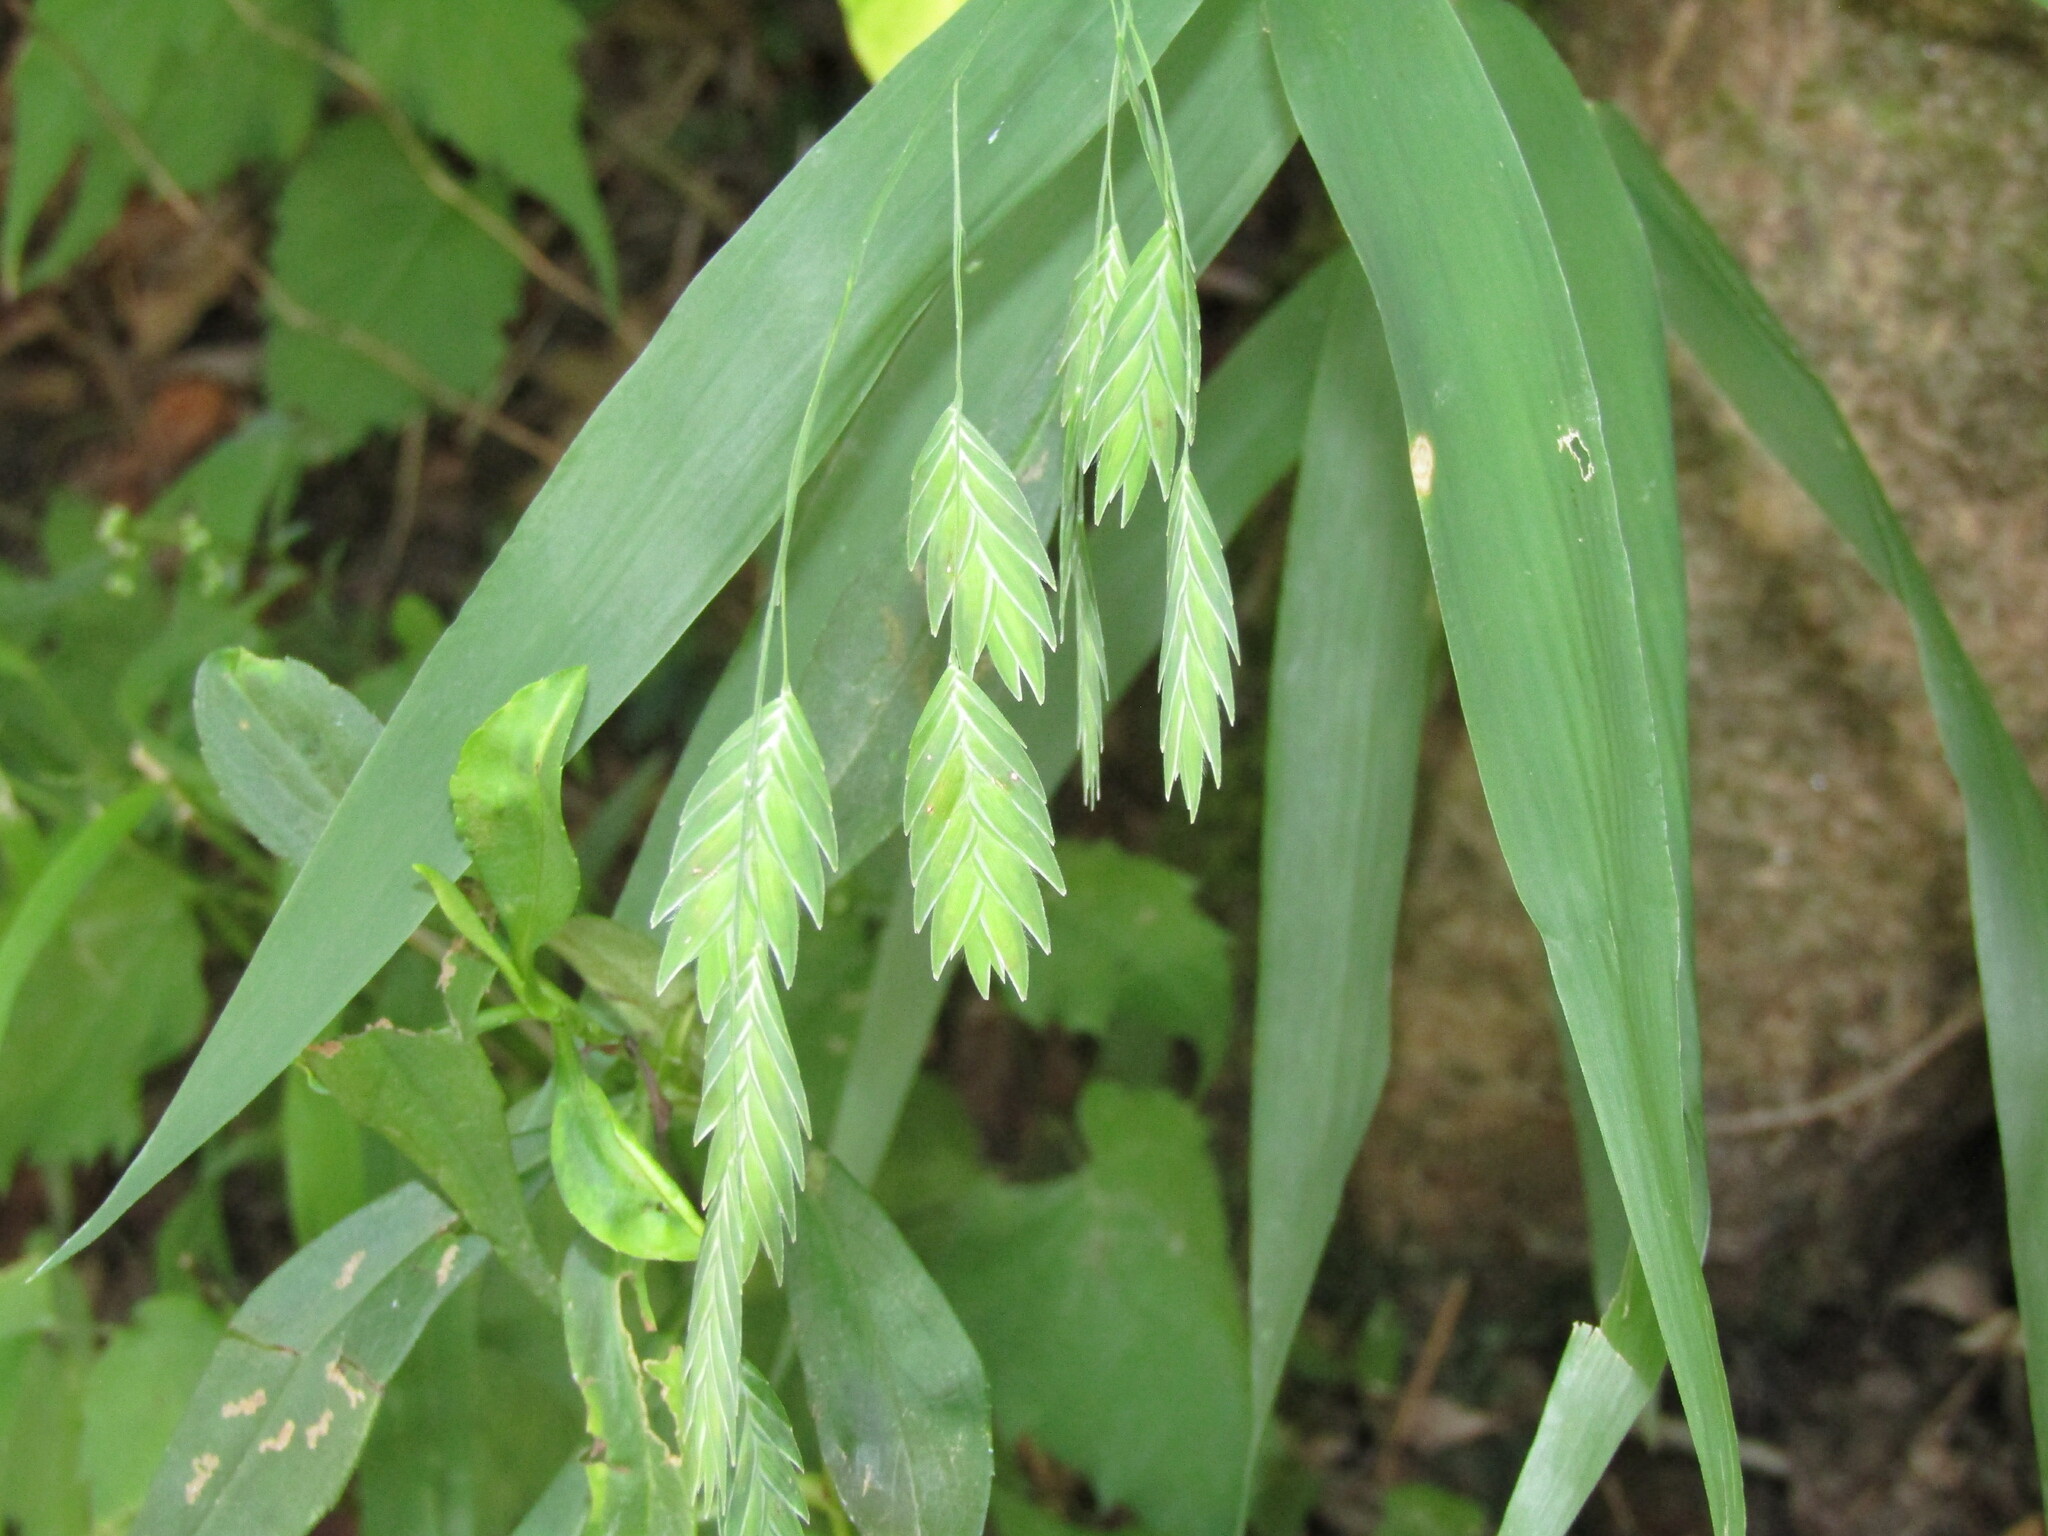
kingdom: Plantae
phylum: Tracheophyta
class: Liliopsida
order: Poales
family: Poaceae
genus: Chasmanthium
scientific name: Chasmanthium latifolium
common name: Broad-leaved chasmanthium
